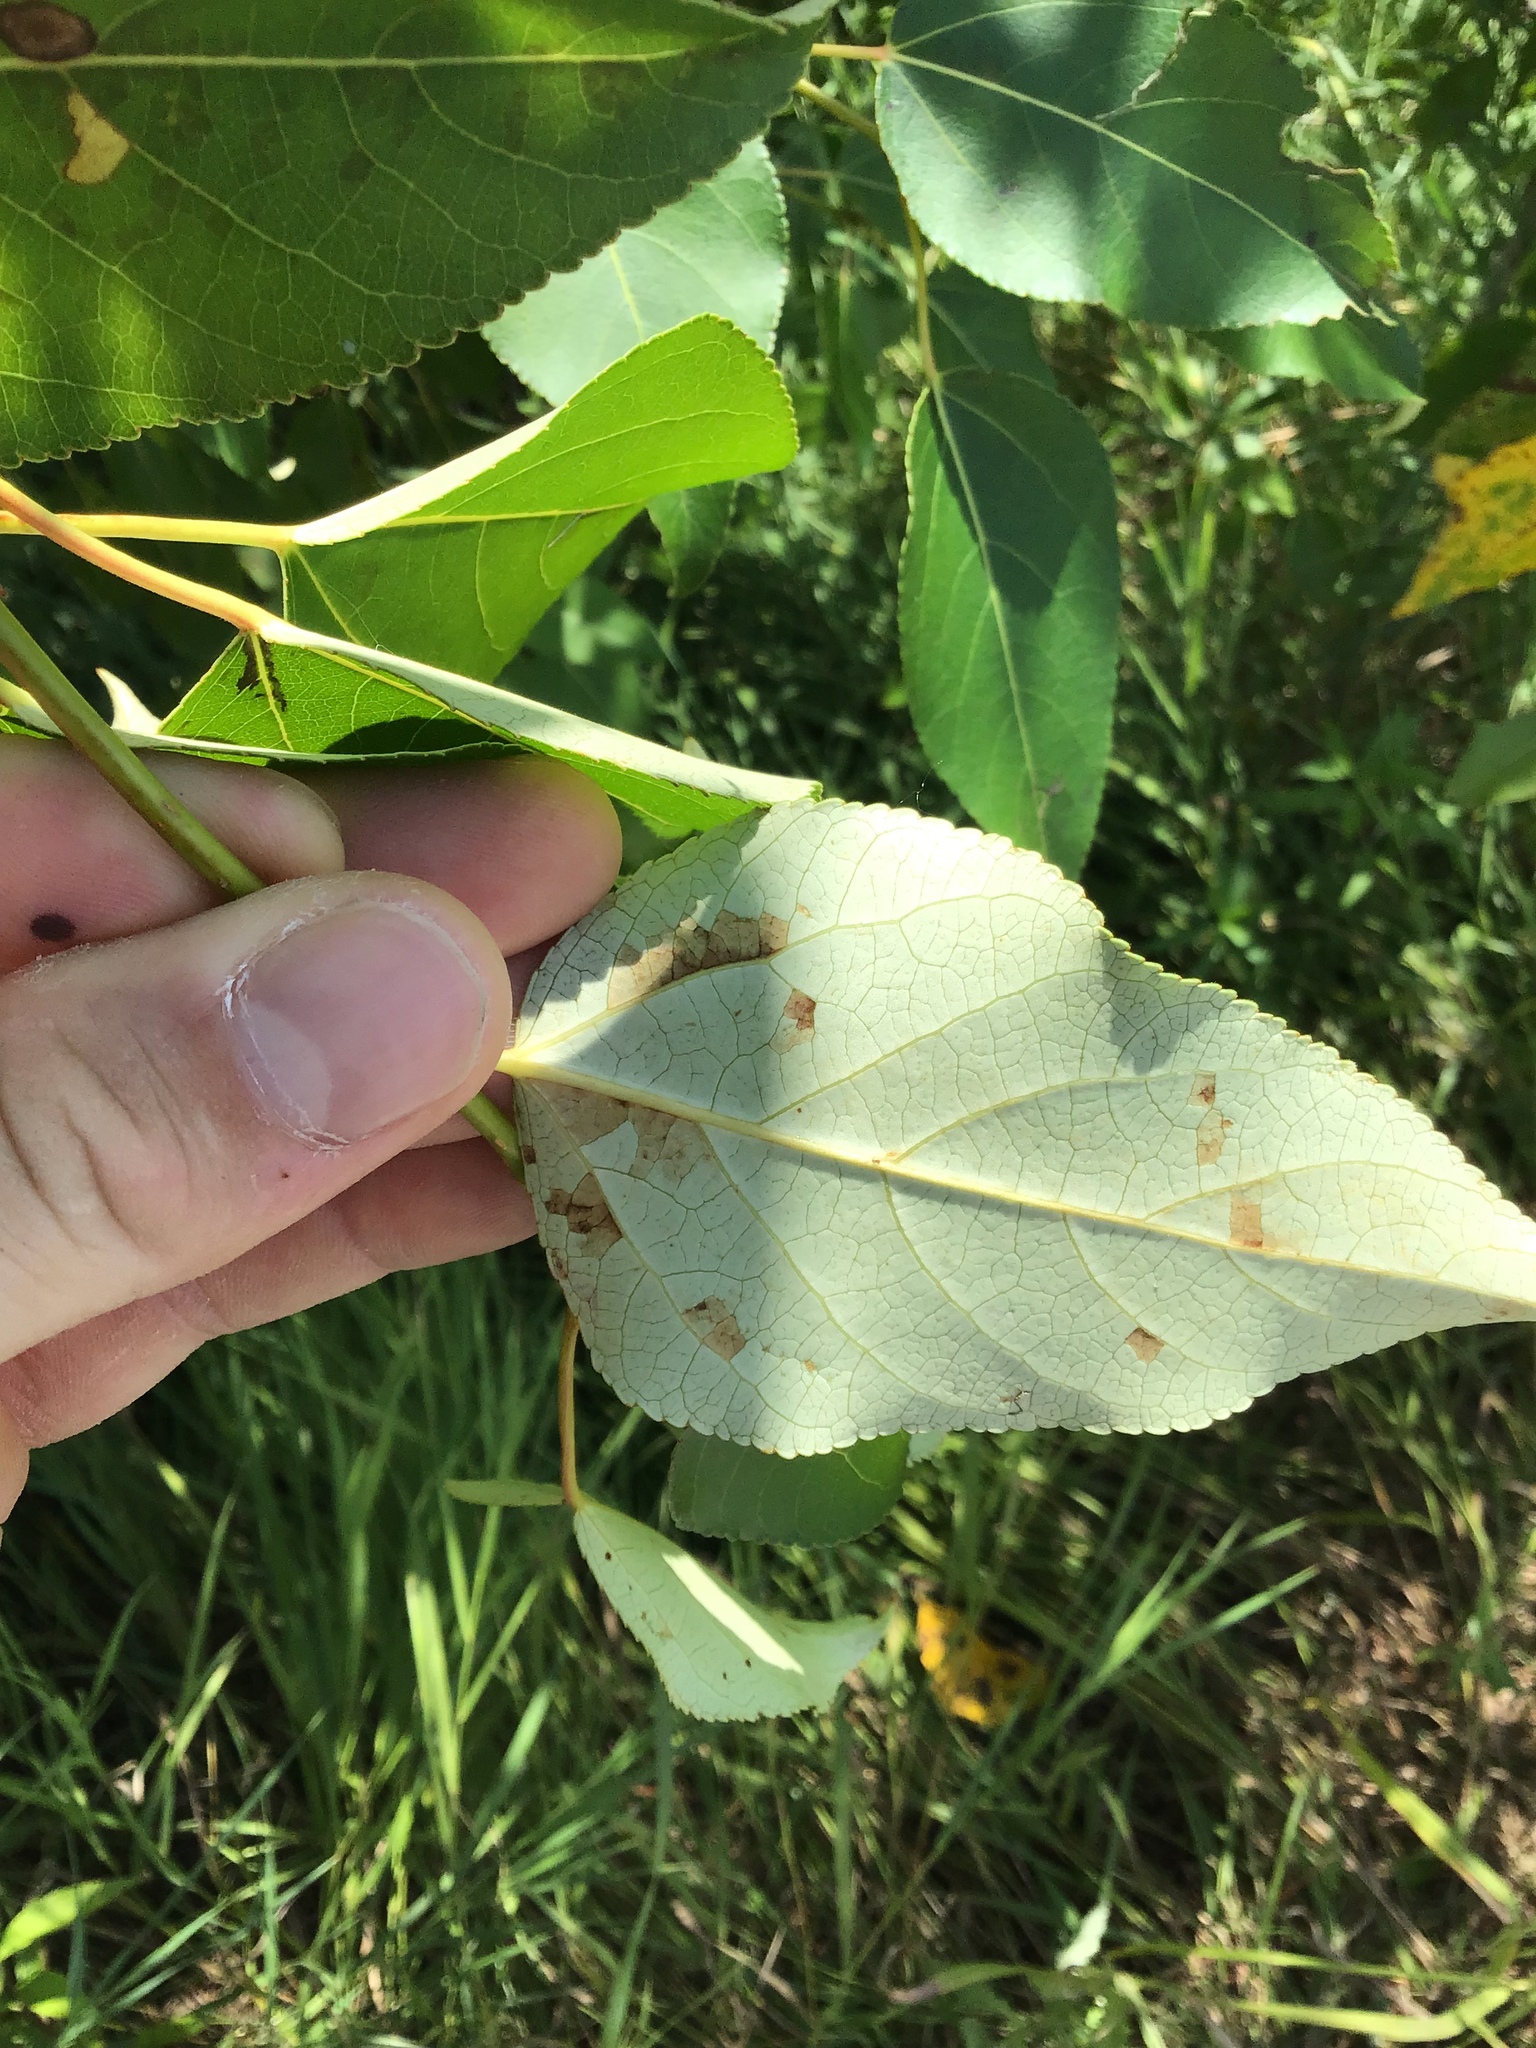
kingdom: Plantae
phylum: Tracheophyta
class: Magnoliopsida
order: Malpighiales
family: Salicaceae
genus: Populus
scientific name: Populus balsamifera
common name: Balsam poplar
